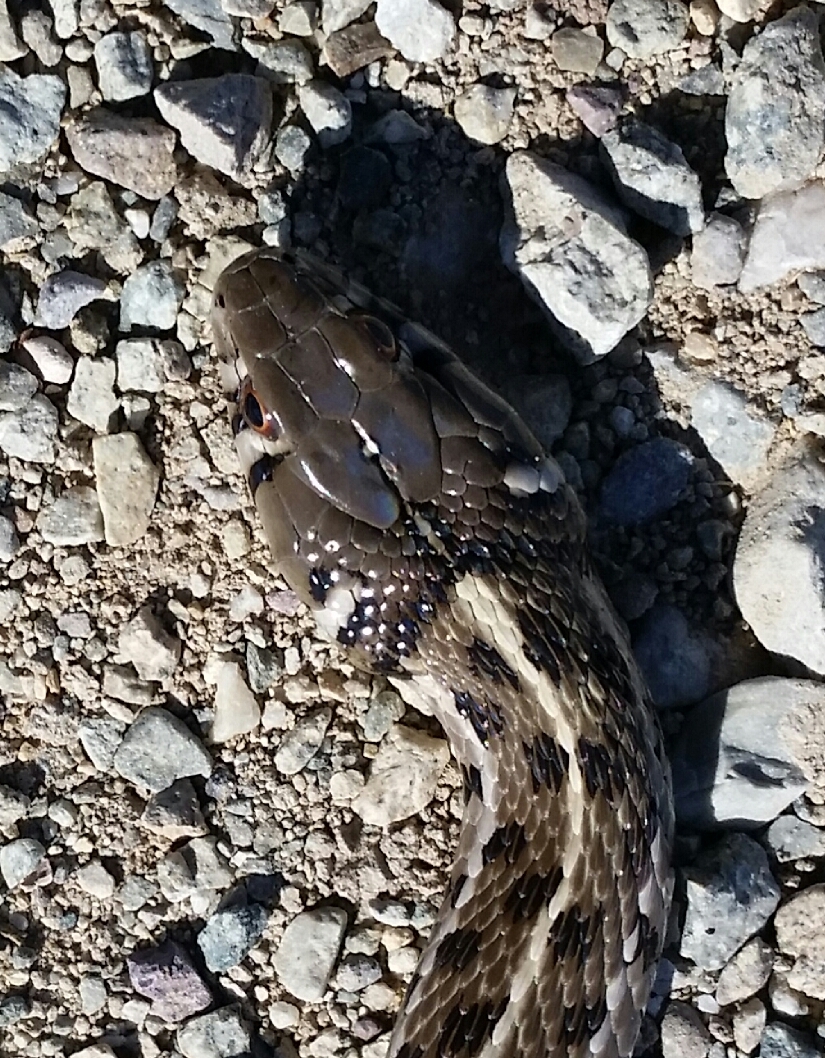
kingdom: Animalia
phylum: Chordata
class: Squamata
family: Colubridae
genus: Thamnophis
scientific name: Thamnophis marcianus
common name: Checkered garter snake
